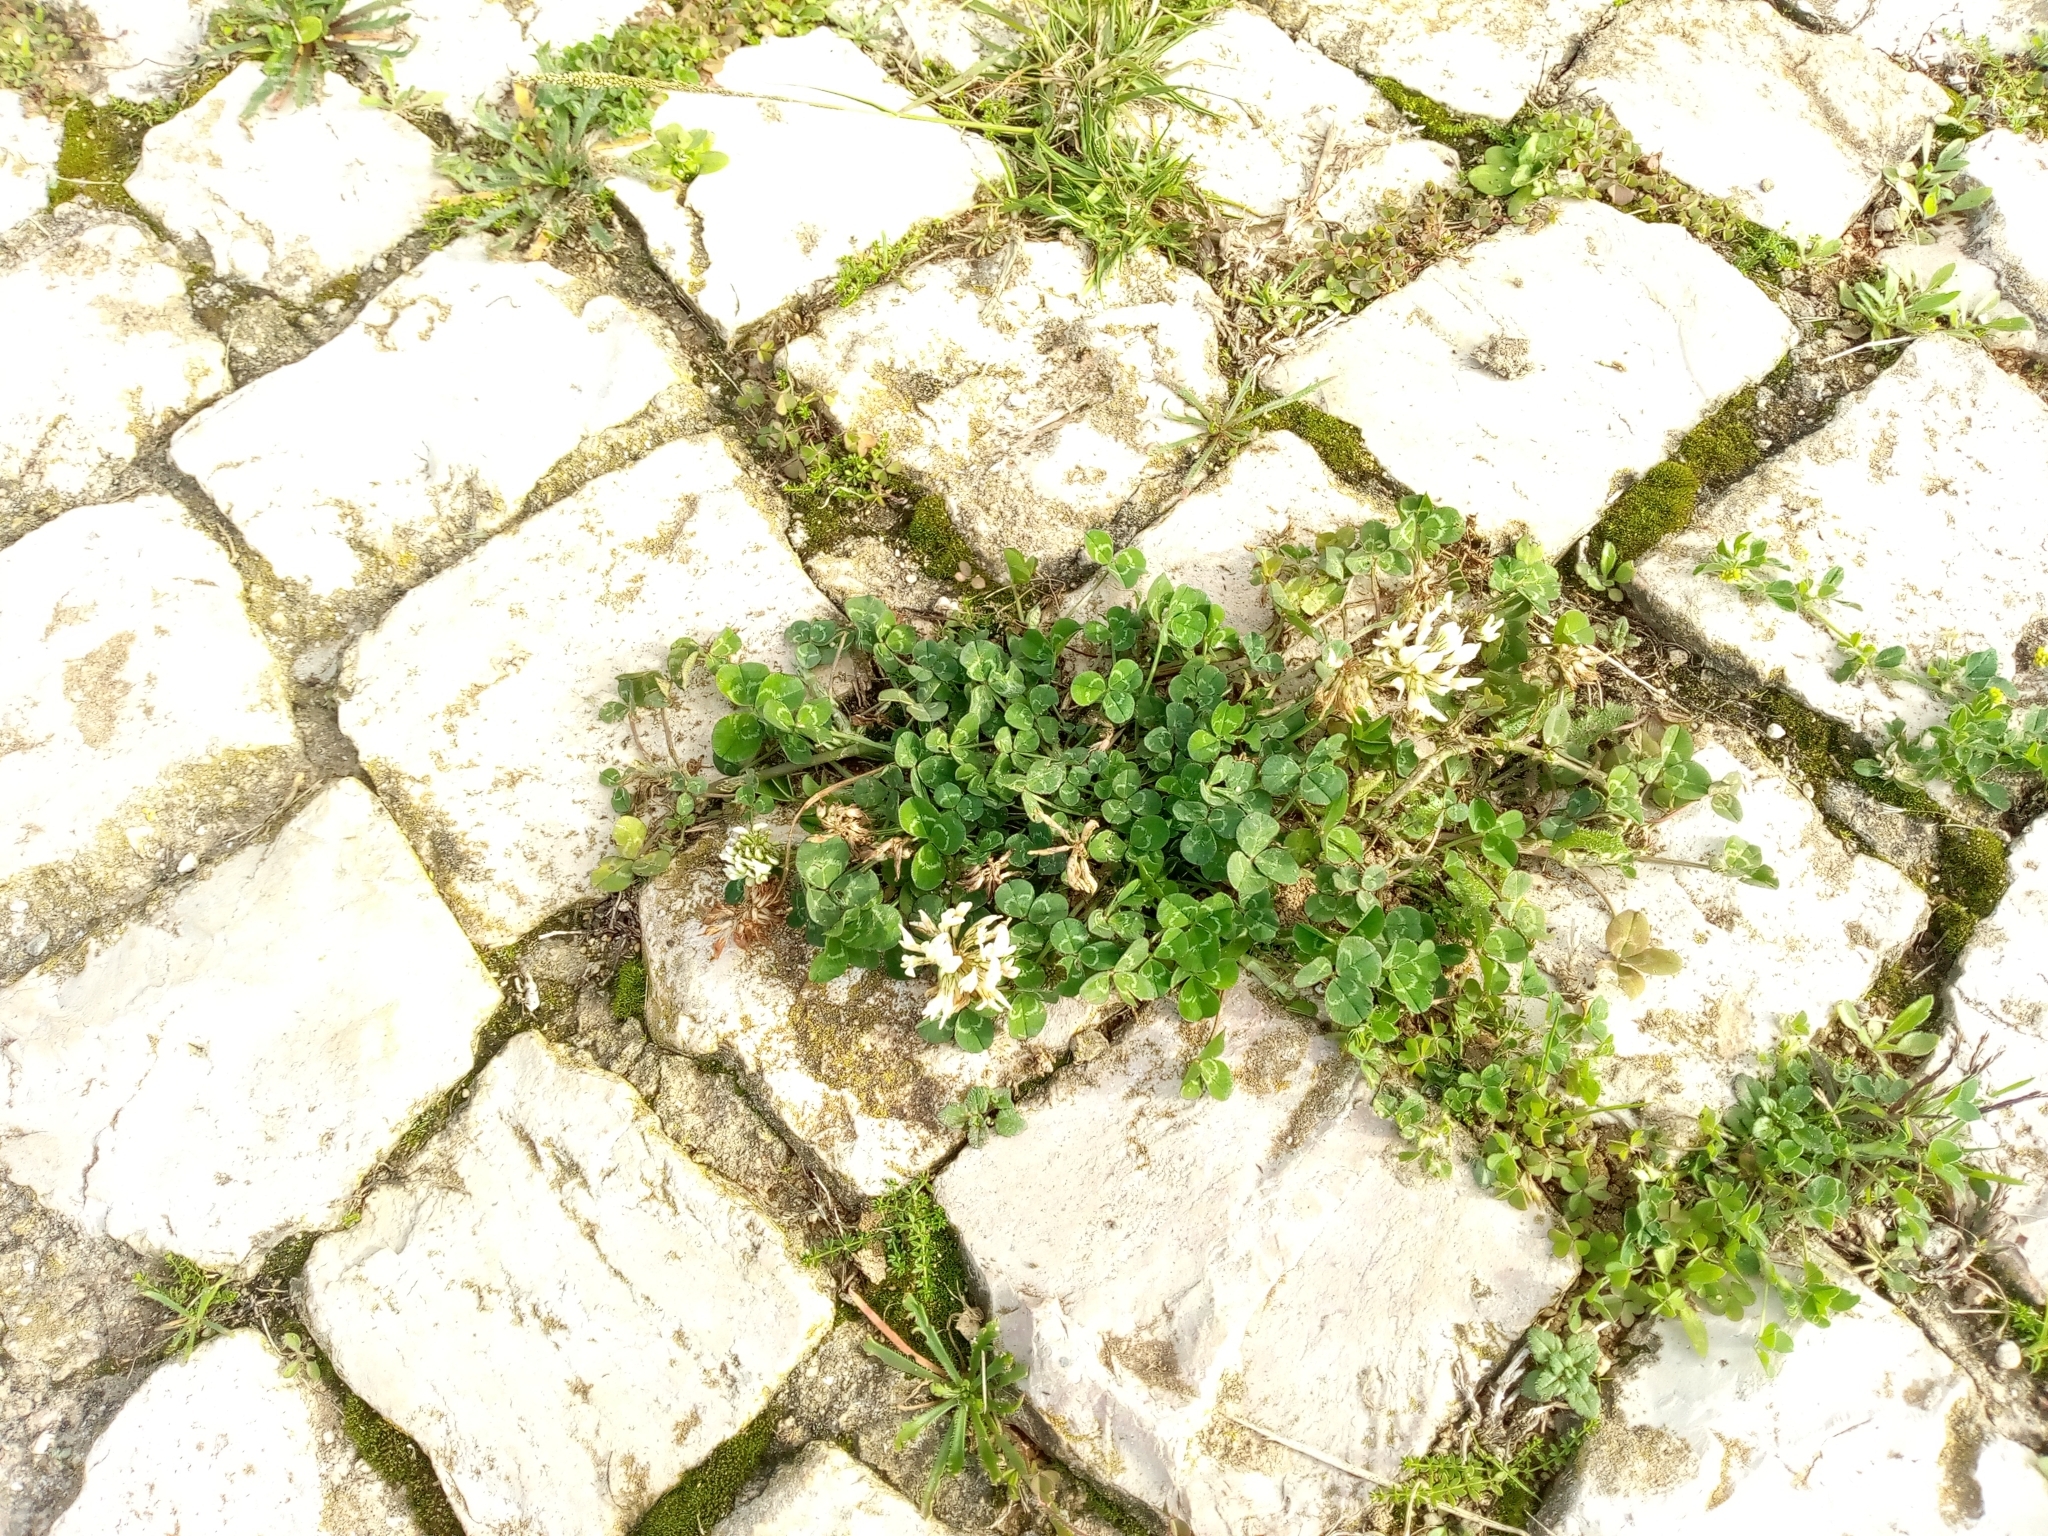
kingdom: Plantae
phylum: Tracheophyta
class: Magnoliopsida
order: Fabales
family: Fabaceae
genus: Trifolium
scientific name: Trifolium repens
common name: White clover
